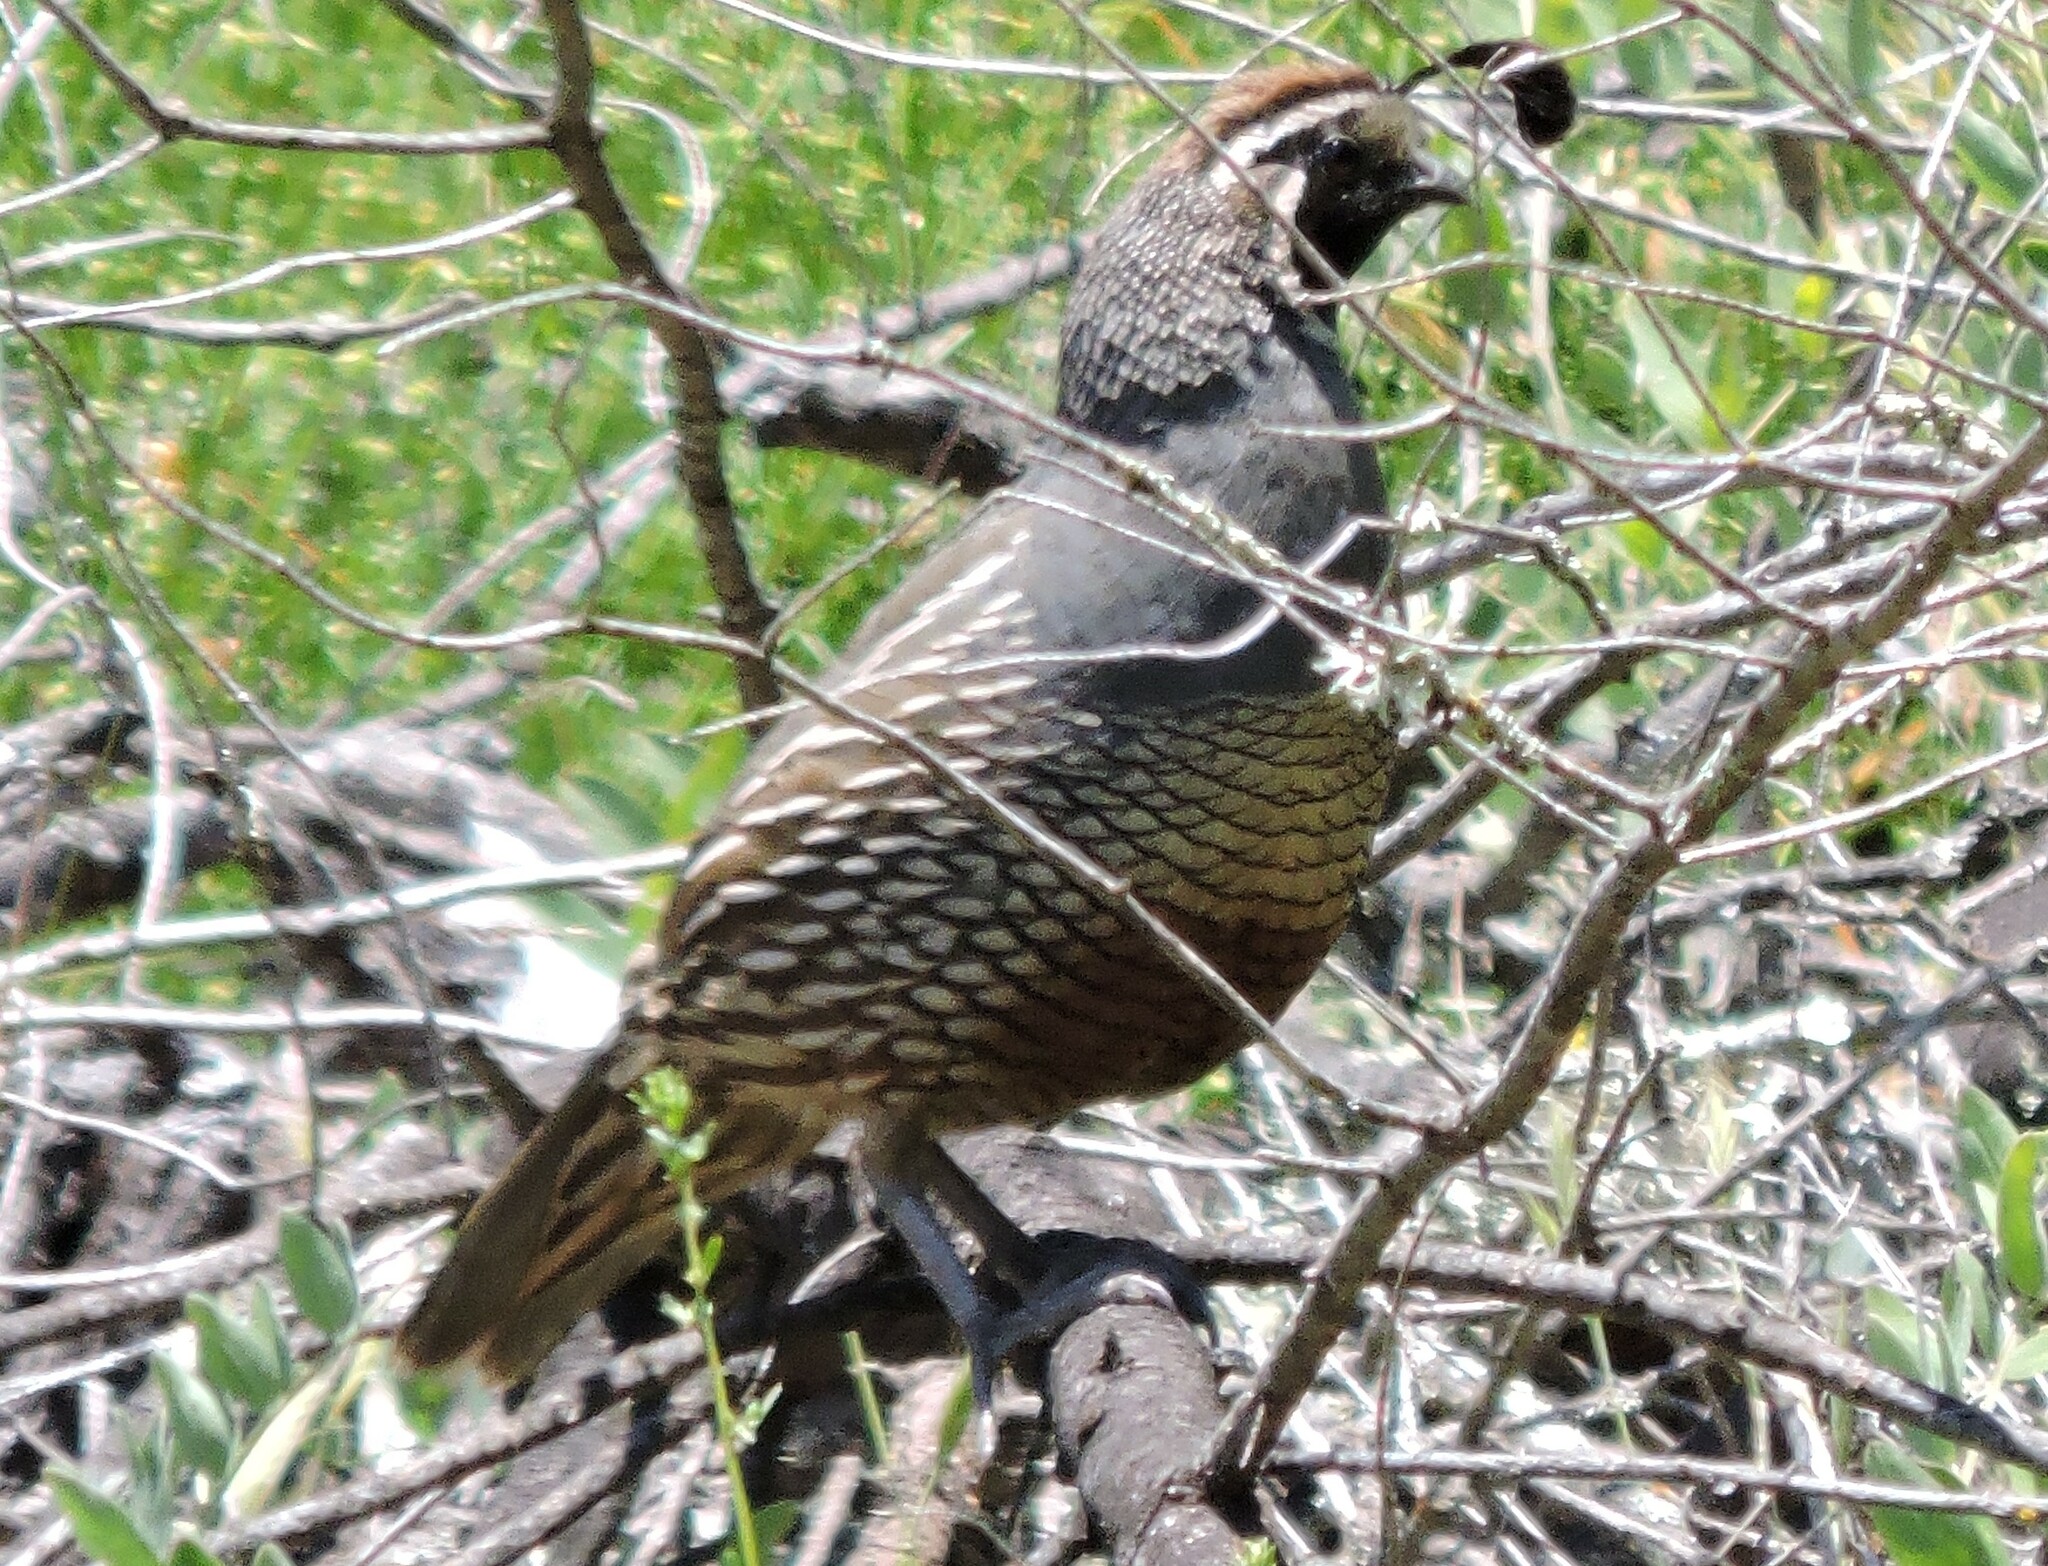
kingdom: Animalia
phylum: Chordata
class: Aves
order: Galliformes
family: Odontophoridae
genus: Callipepla
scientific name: Callipepla californica
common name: California quail
